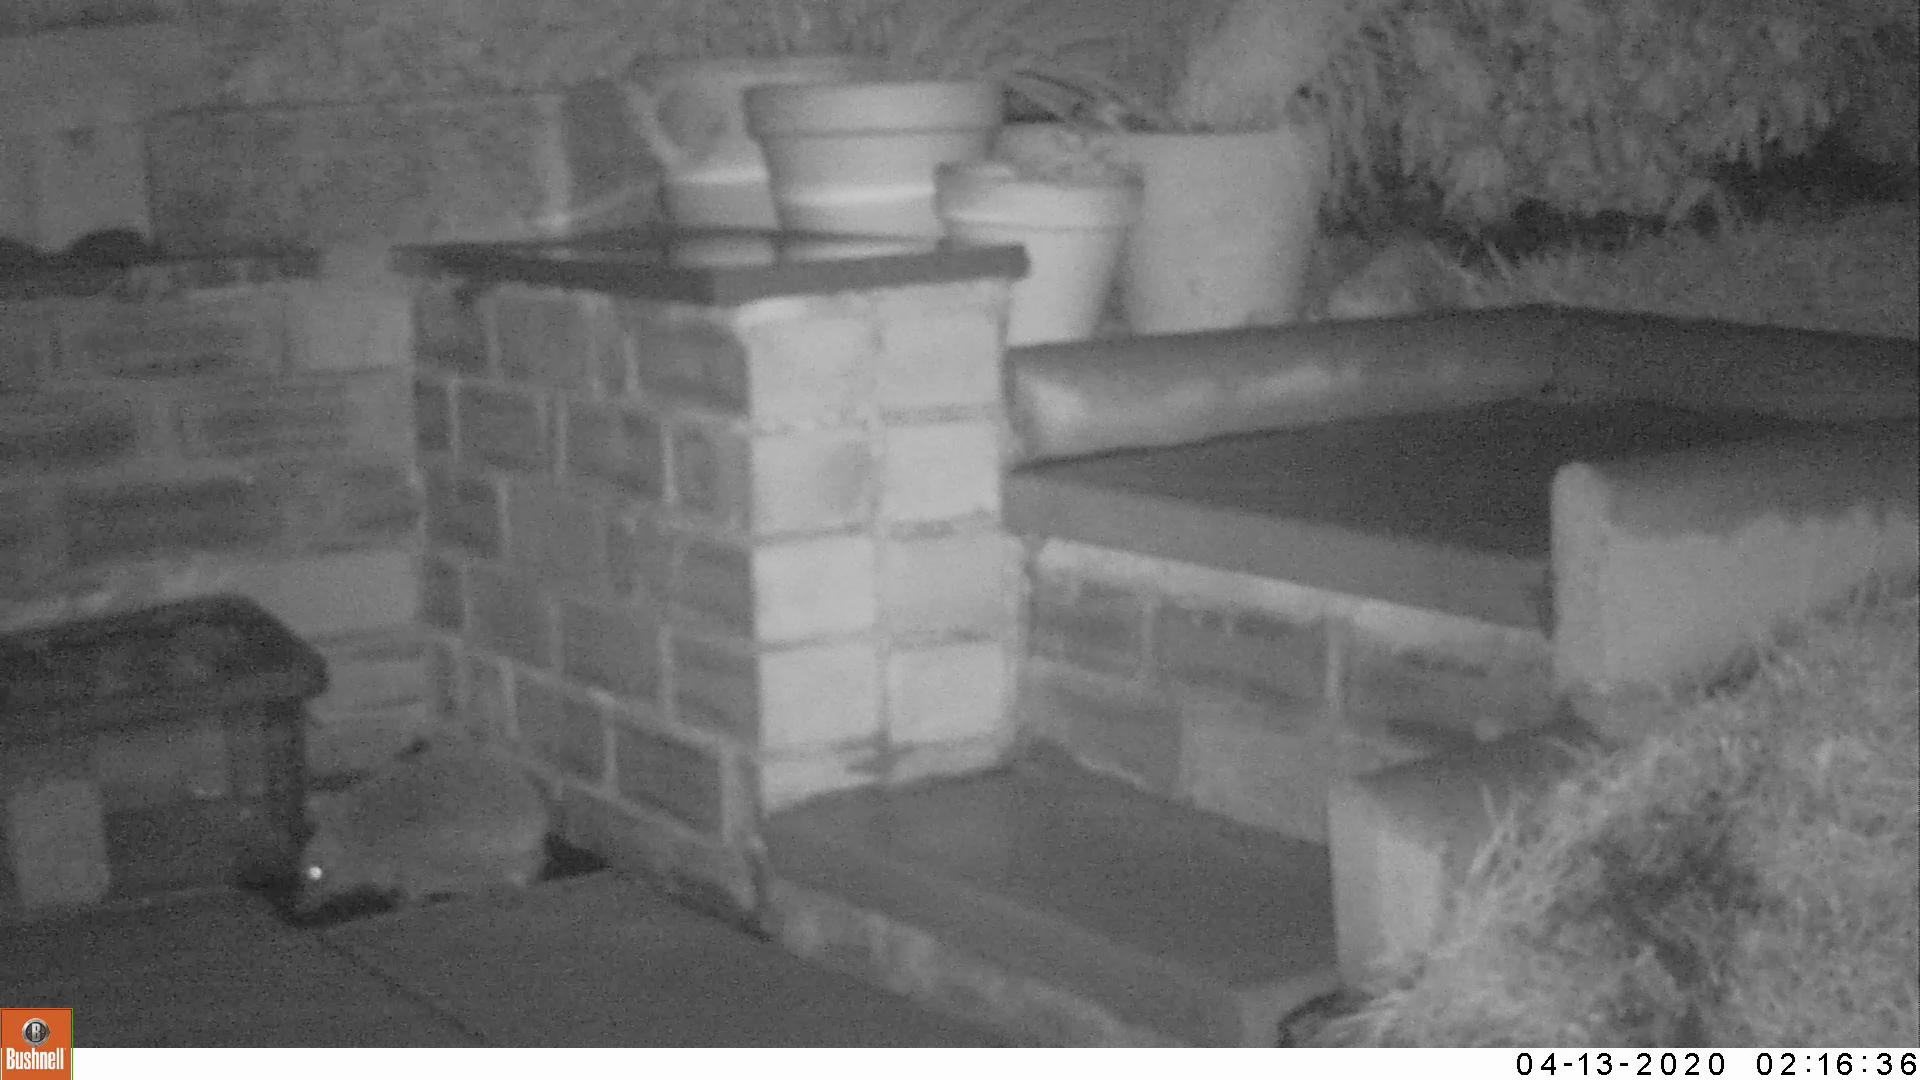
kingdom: Animalia
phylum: Chordata
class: Mammalia
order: Erinaceomorpha
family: Erinaceidae
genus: Erinaceus
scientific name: Erinaceus europaeus
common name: West european hedgehog
